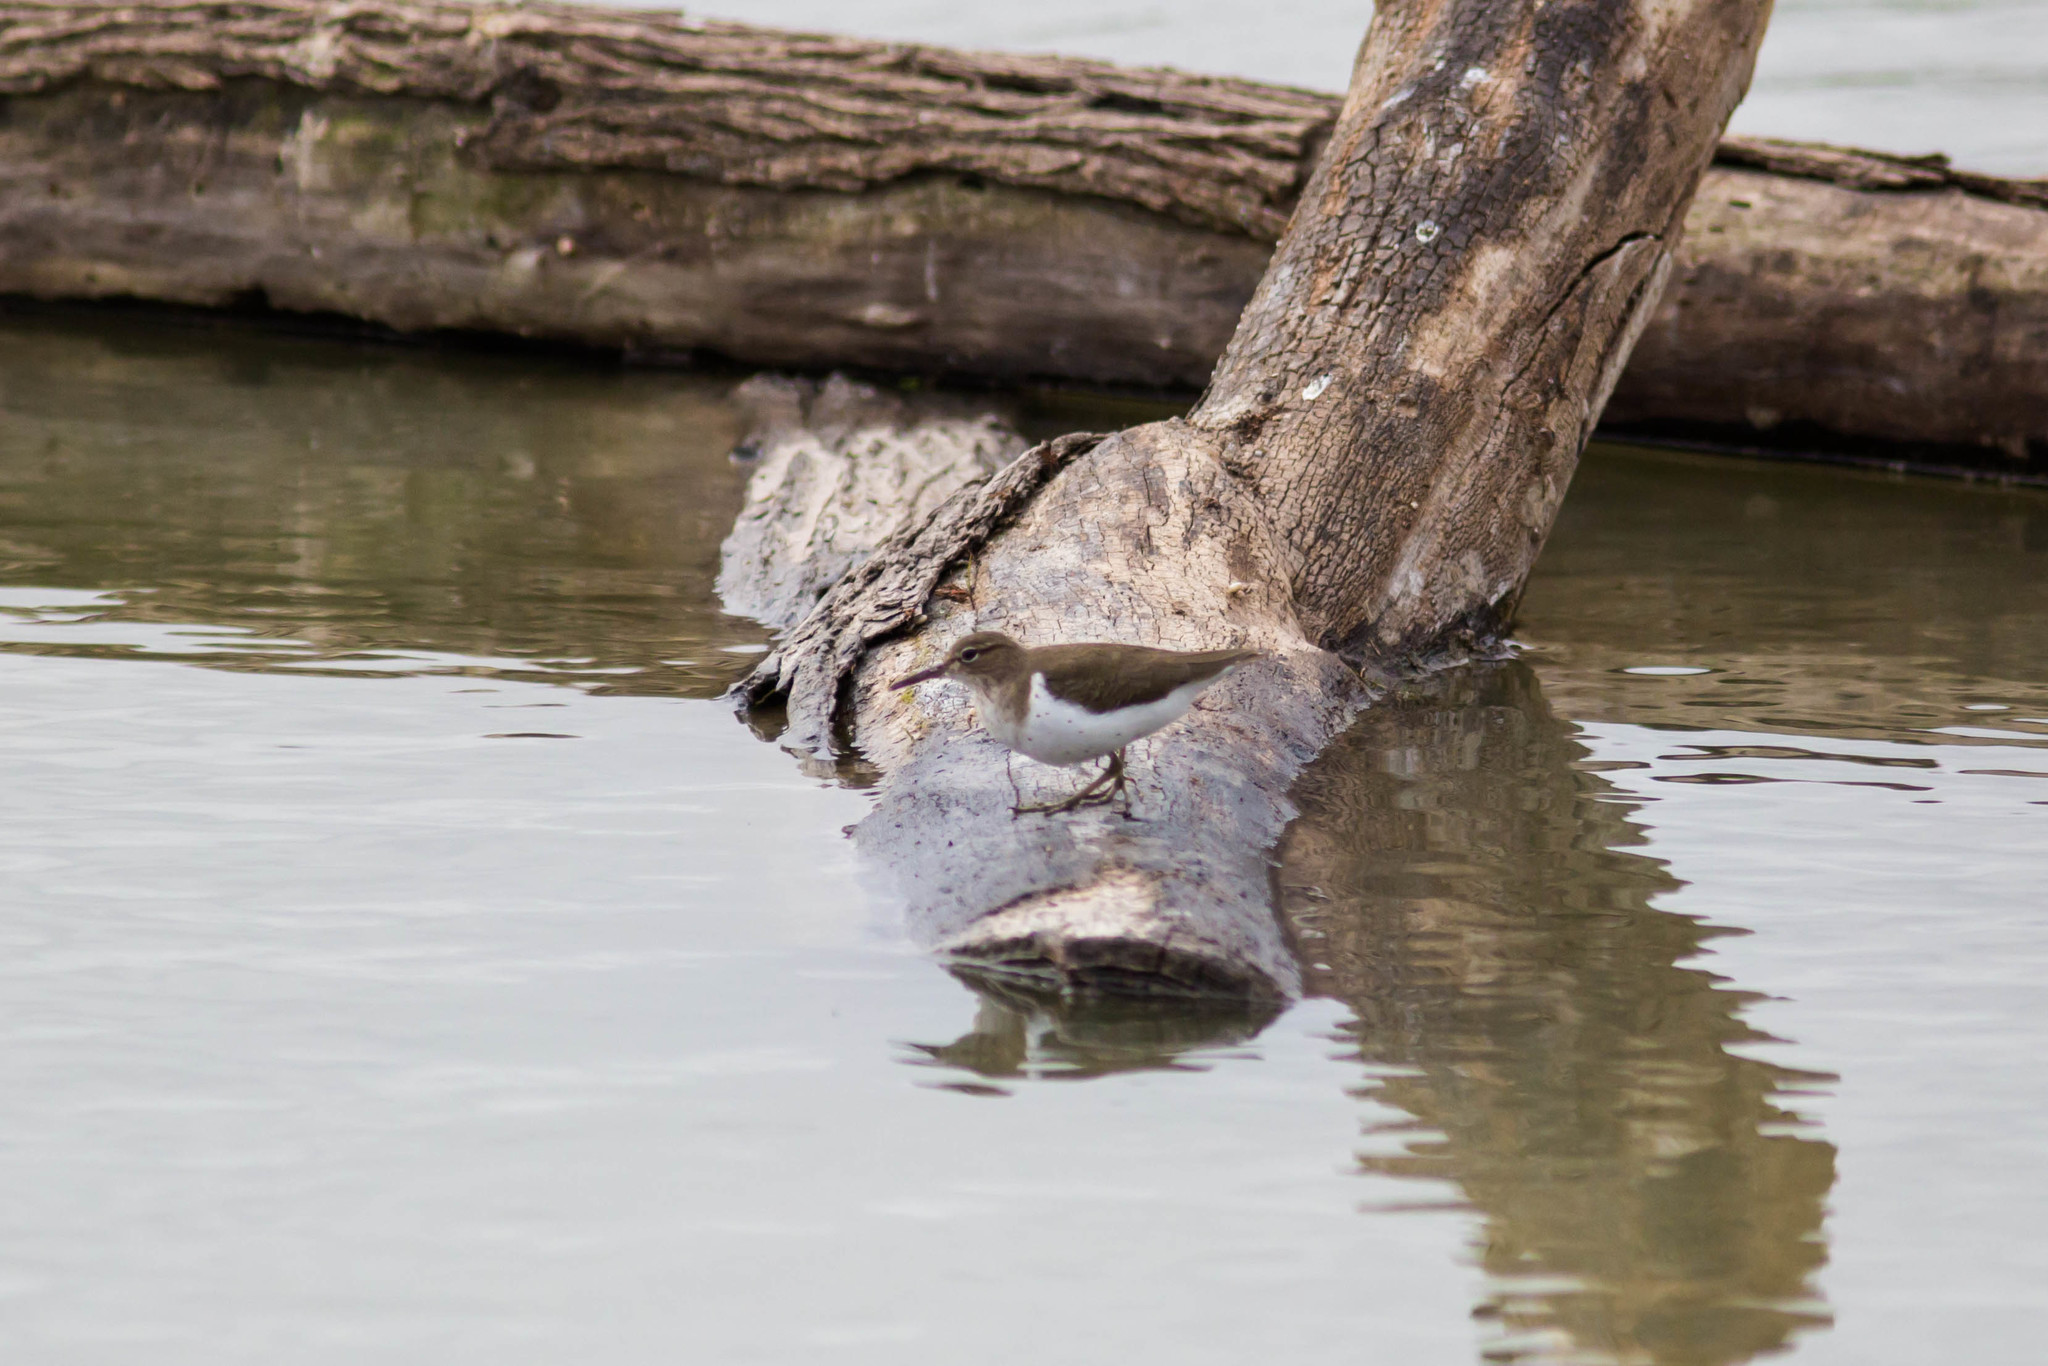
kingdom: Animalia
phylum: Chordata
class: Aves
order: Charadriiformes
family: Scolopacidae
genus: Actitis
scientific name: Actitis macularius
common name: Spotted sandpiper
